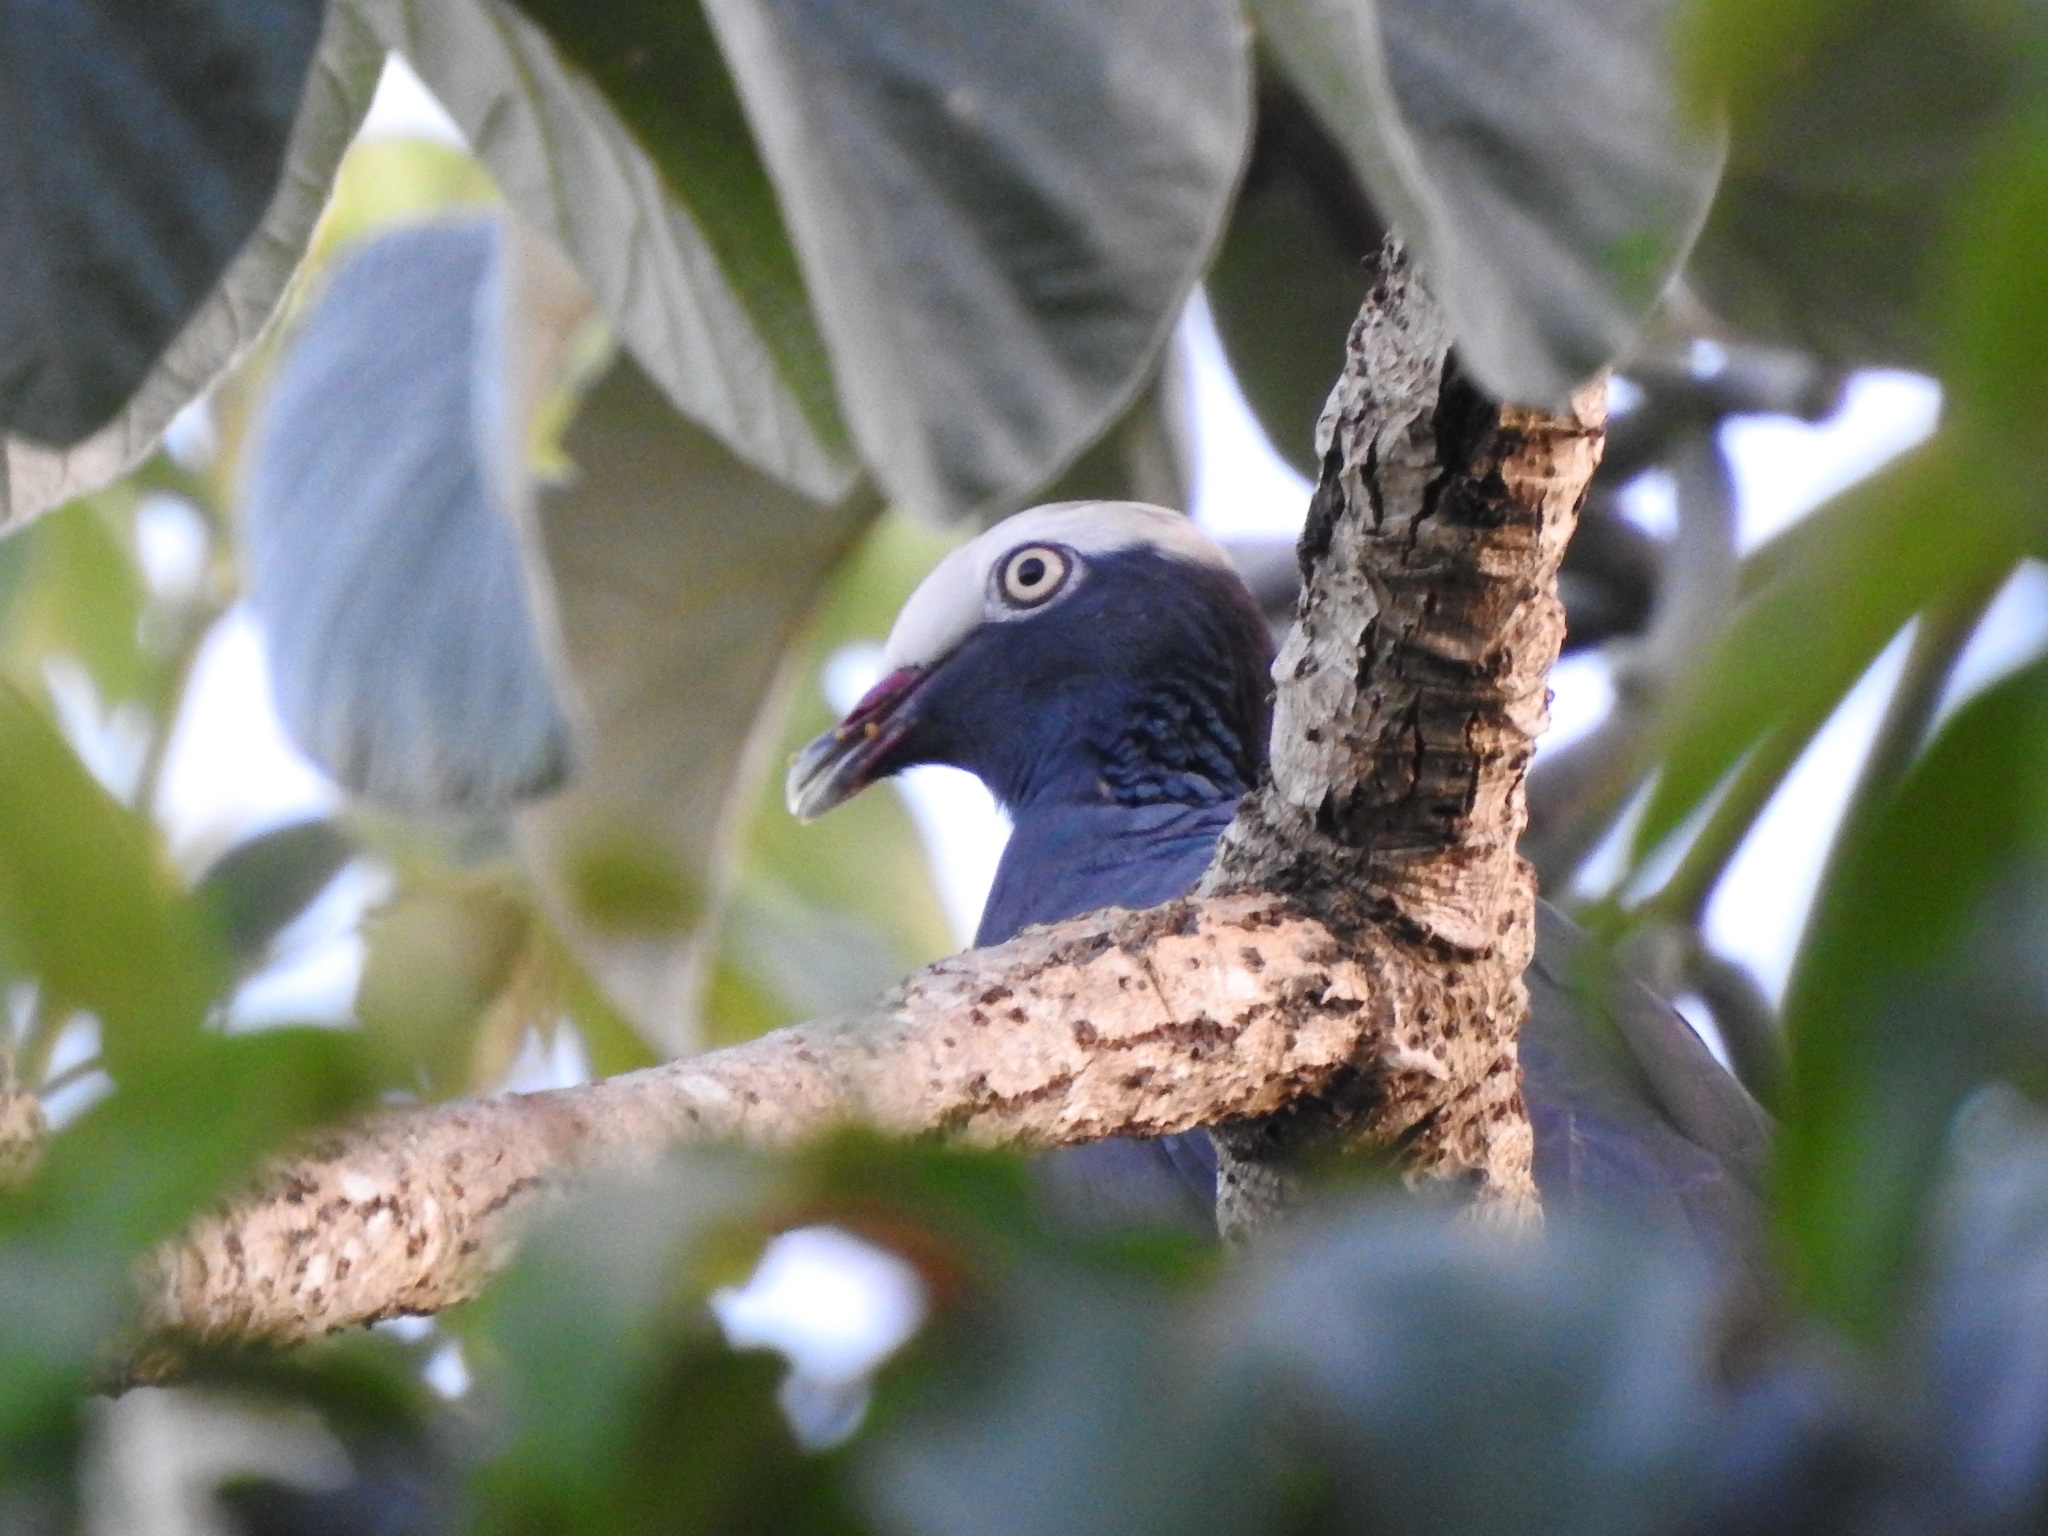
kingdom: Animalia
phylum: Chordata
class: Aves
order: Columbiformes
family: Columbidae
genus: Patagioenas
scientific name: Patagioenas leucocephala
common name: White-crowned pigeon
